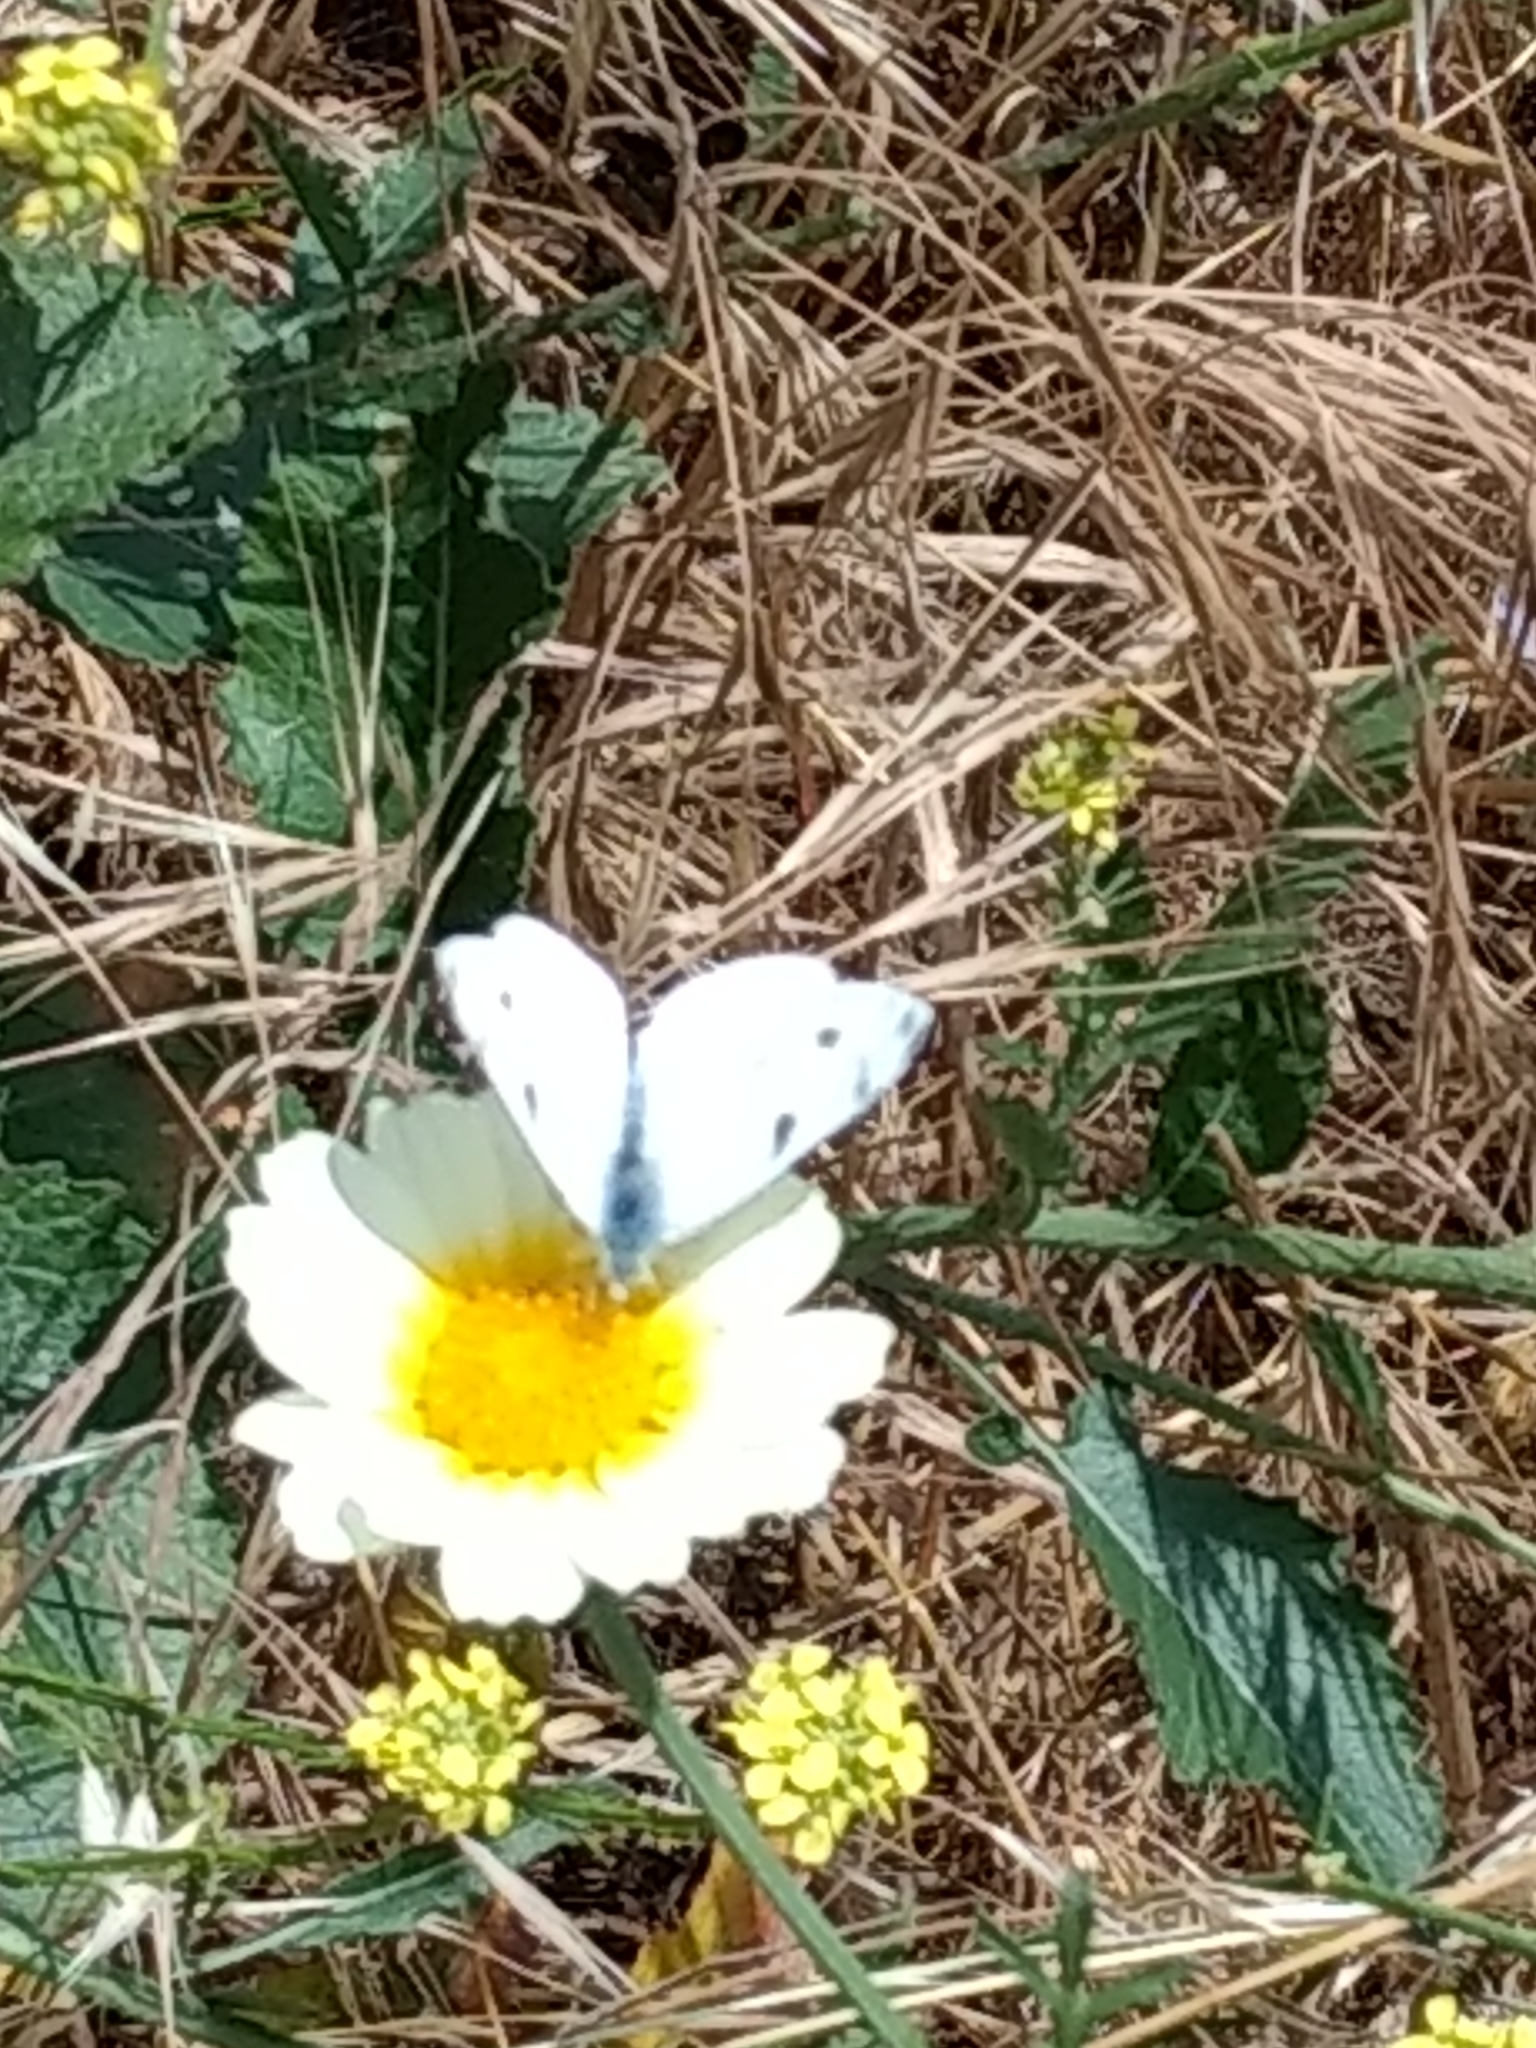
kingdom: Animalia
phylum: Arthropoda
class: Insecta
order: Lepidoptera
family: Pieridae
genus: Pontia
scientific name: Pontia protodice
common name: Checkered white
